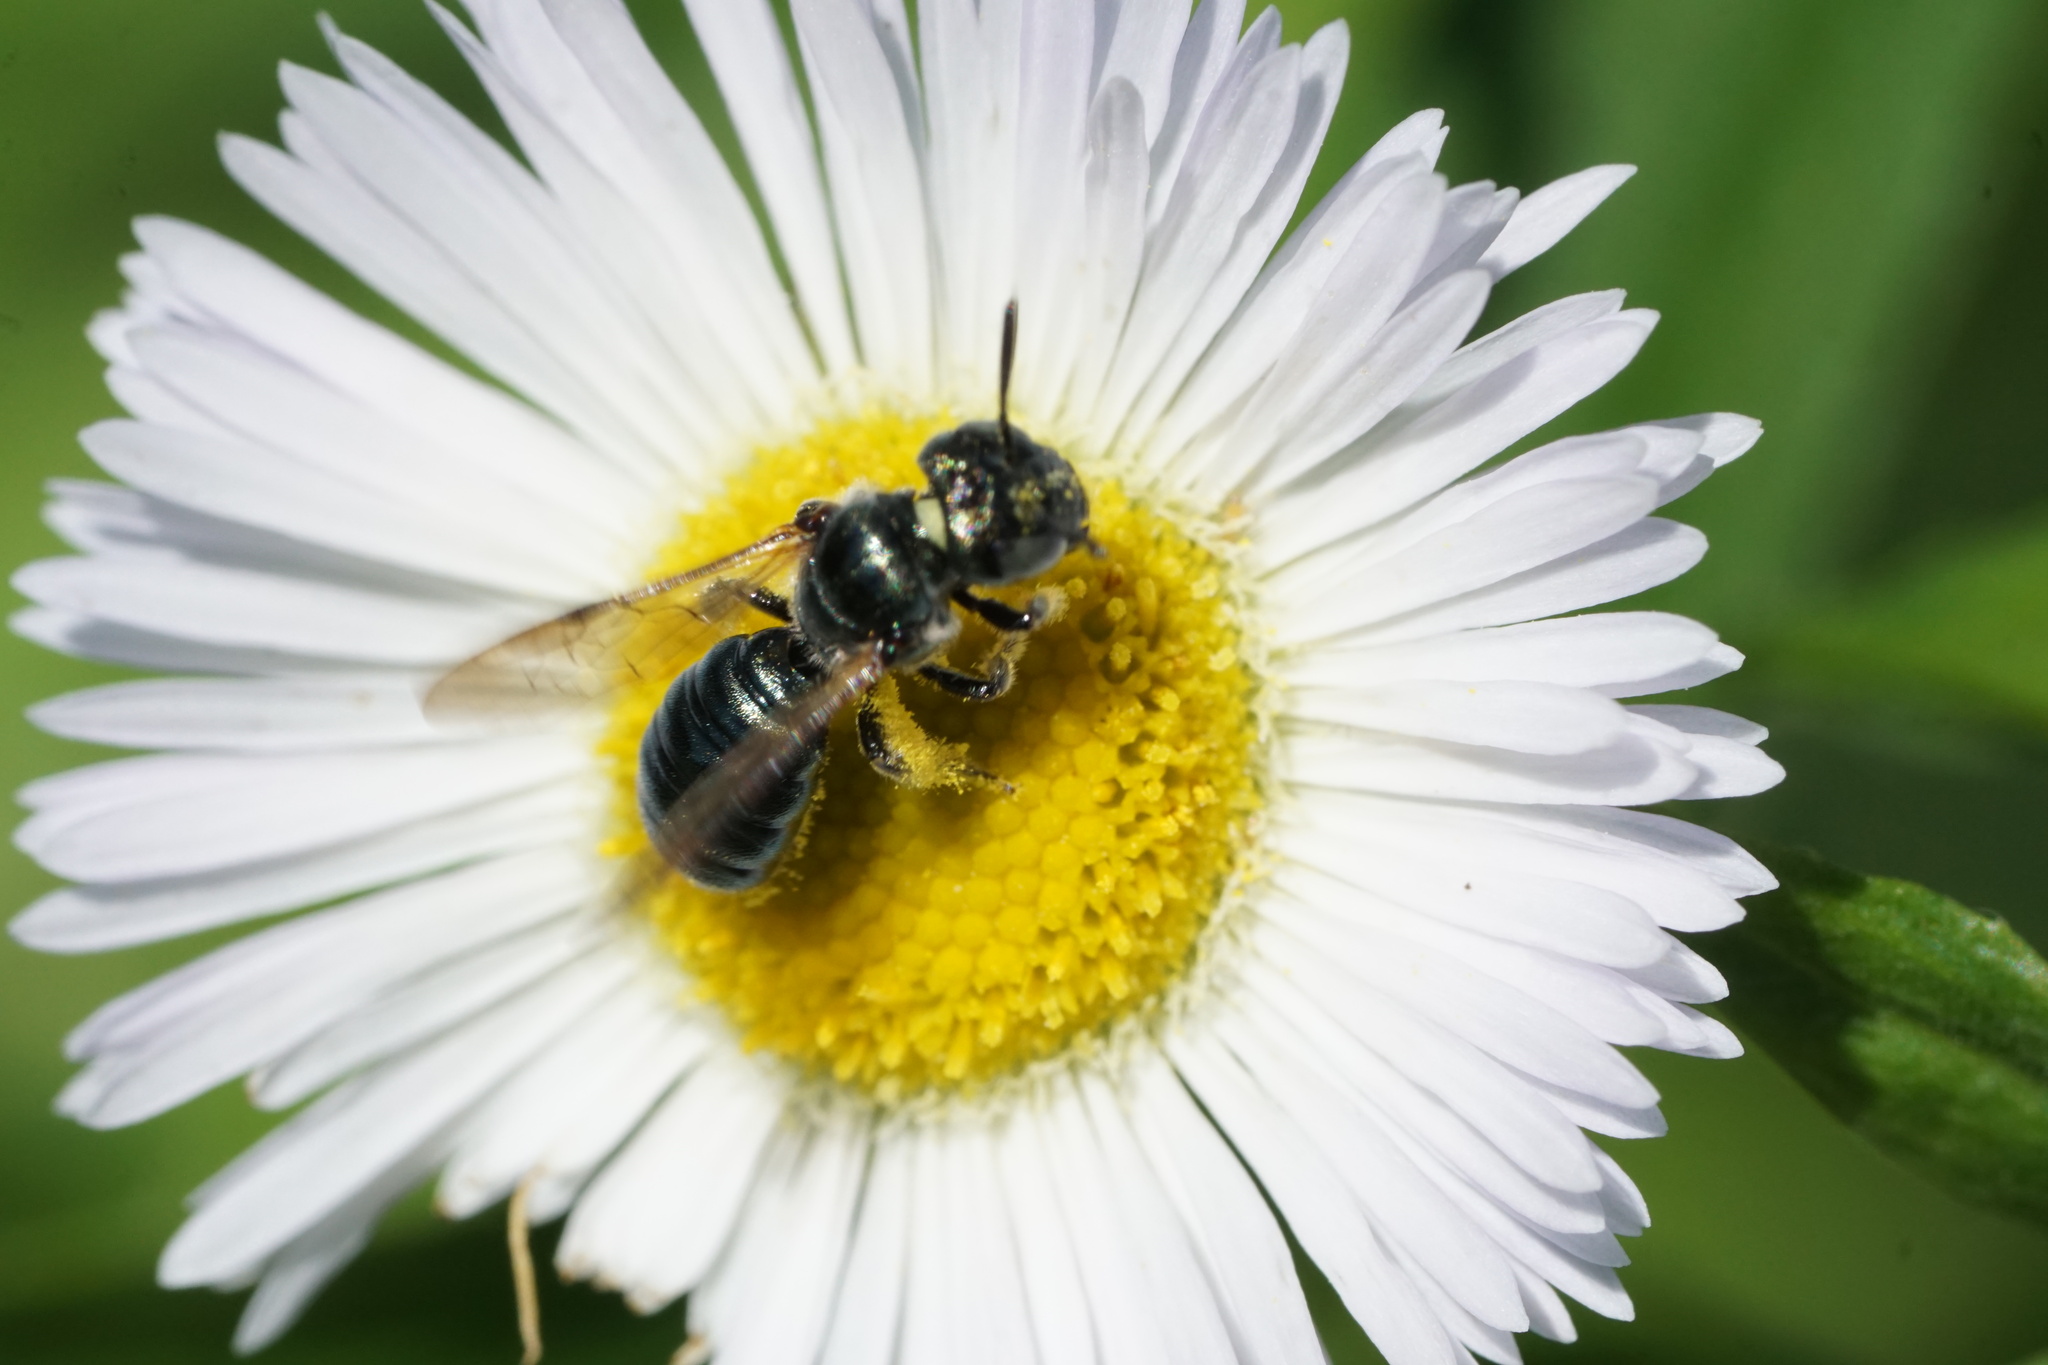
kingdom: Animalia
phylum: Arthropoda
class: Insecta
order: Hymenoptera
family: Apidae
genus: Ceratina
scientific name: Ceratina calcarata
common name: Spurred carpenter bee
